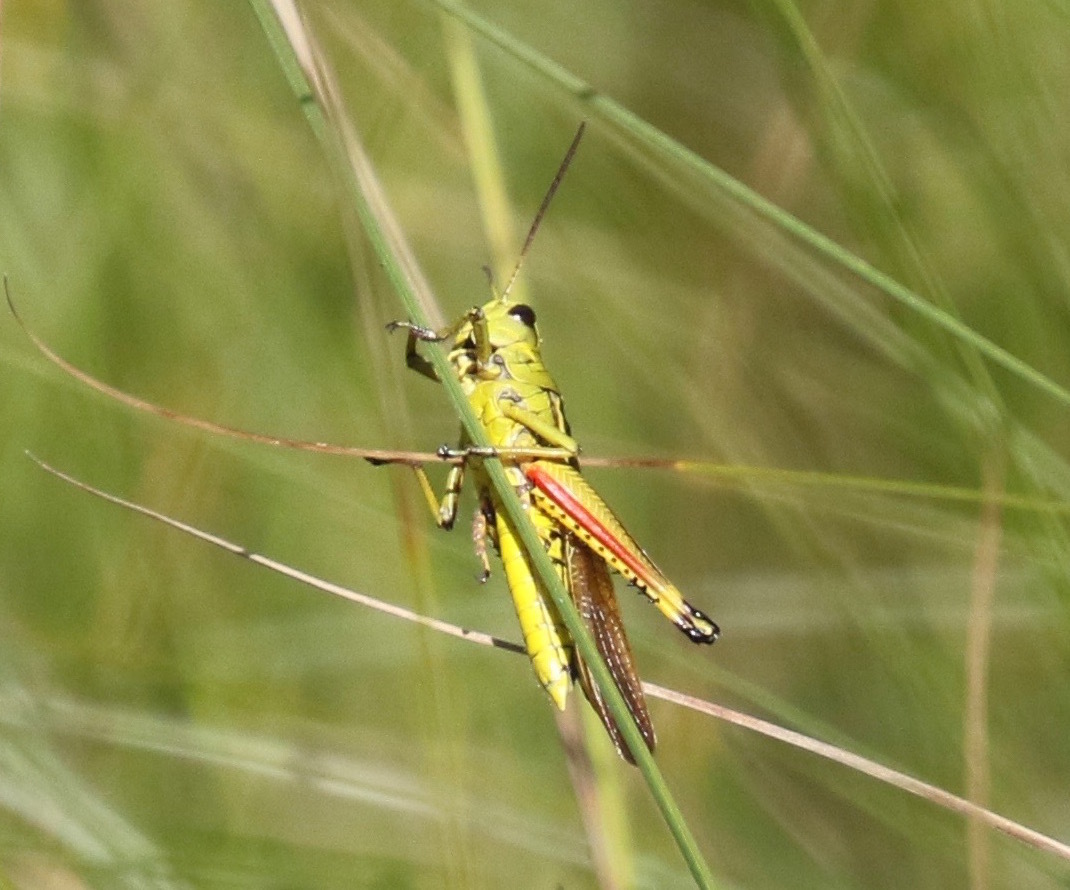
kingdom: Animalia
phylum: Arthropoda
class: Insecta
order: Orthoptera
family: Acrididae
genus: Stethophyma
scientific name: Stethophyma lineatum
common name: Striped sedge locust
